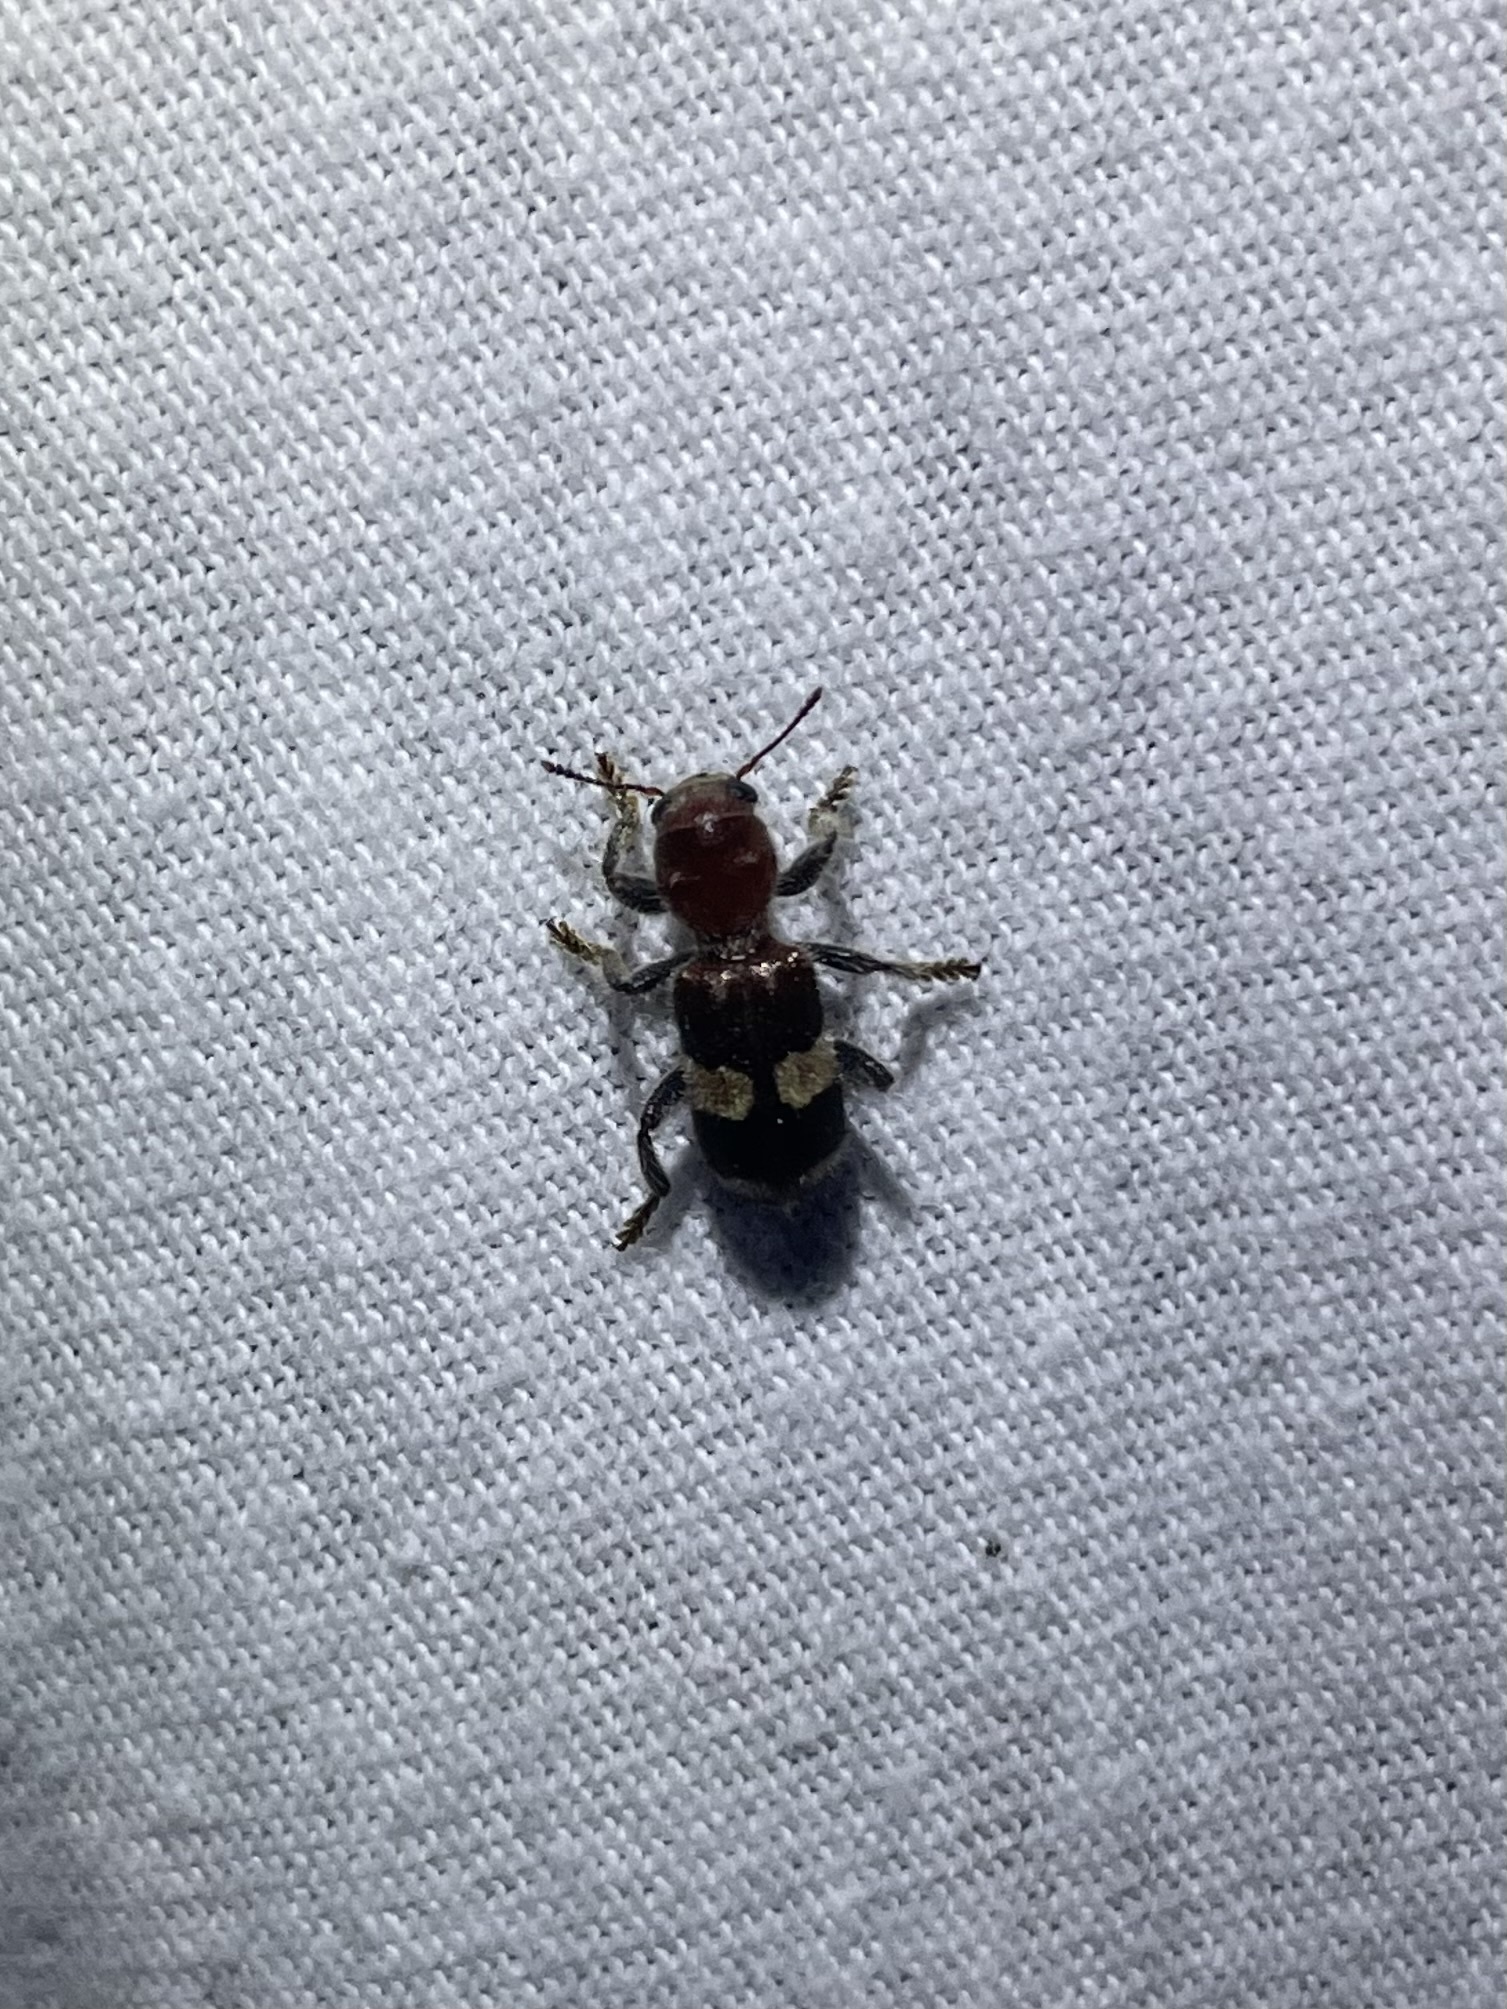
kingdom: Animalia
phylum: Arthropoda
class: Insecta
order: Coleoptera
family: Cleridae
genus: Enoclerus
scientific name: Enoclerus quadrisignatus
